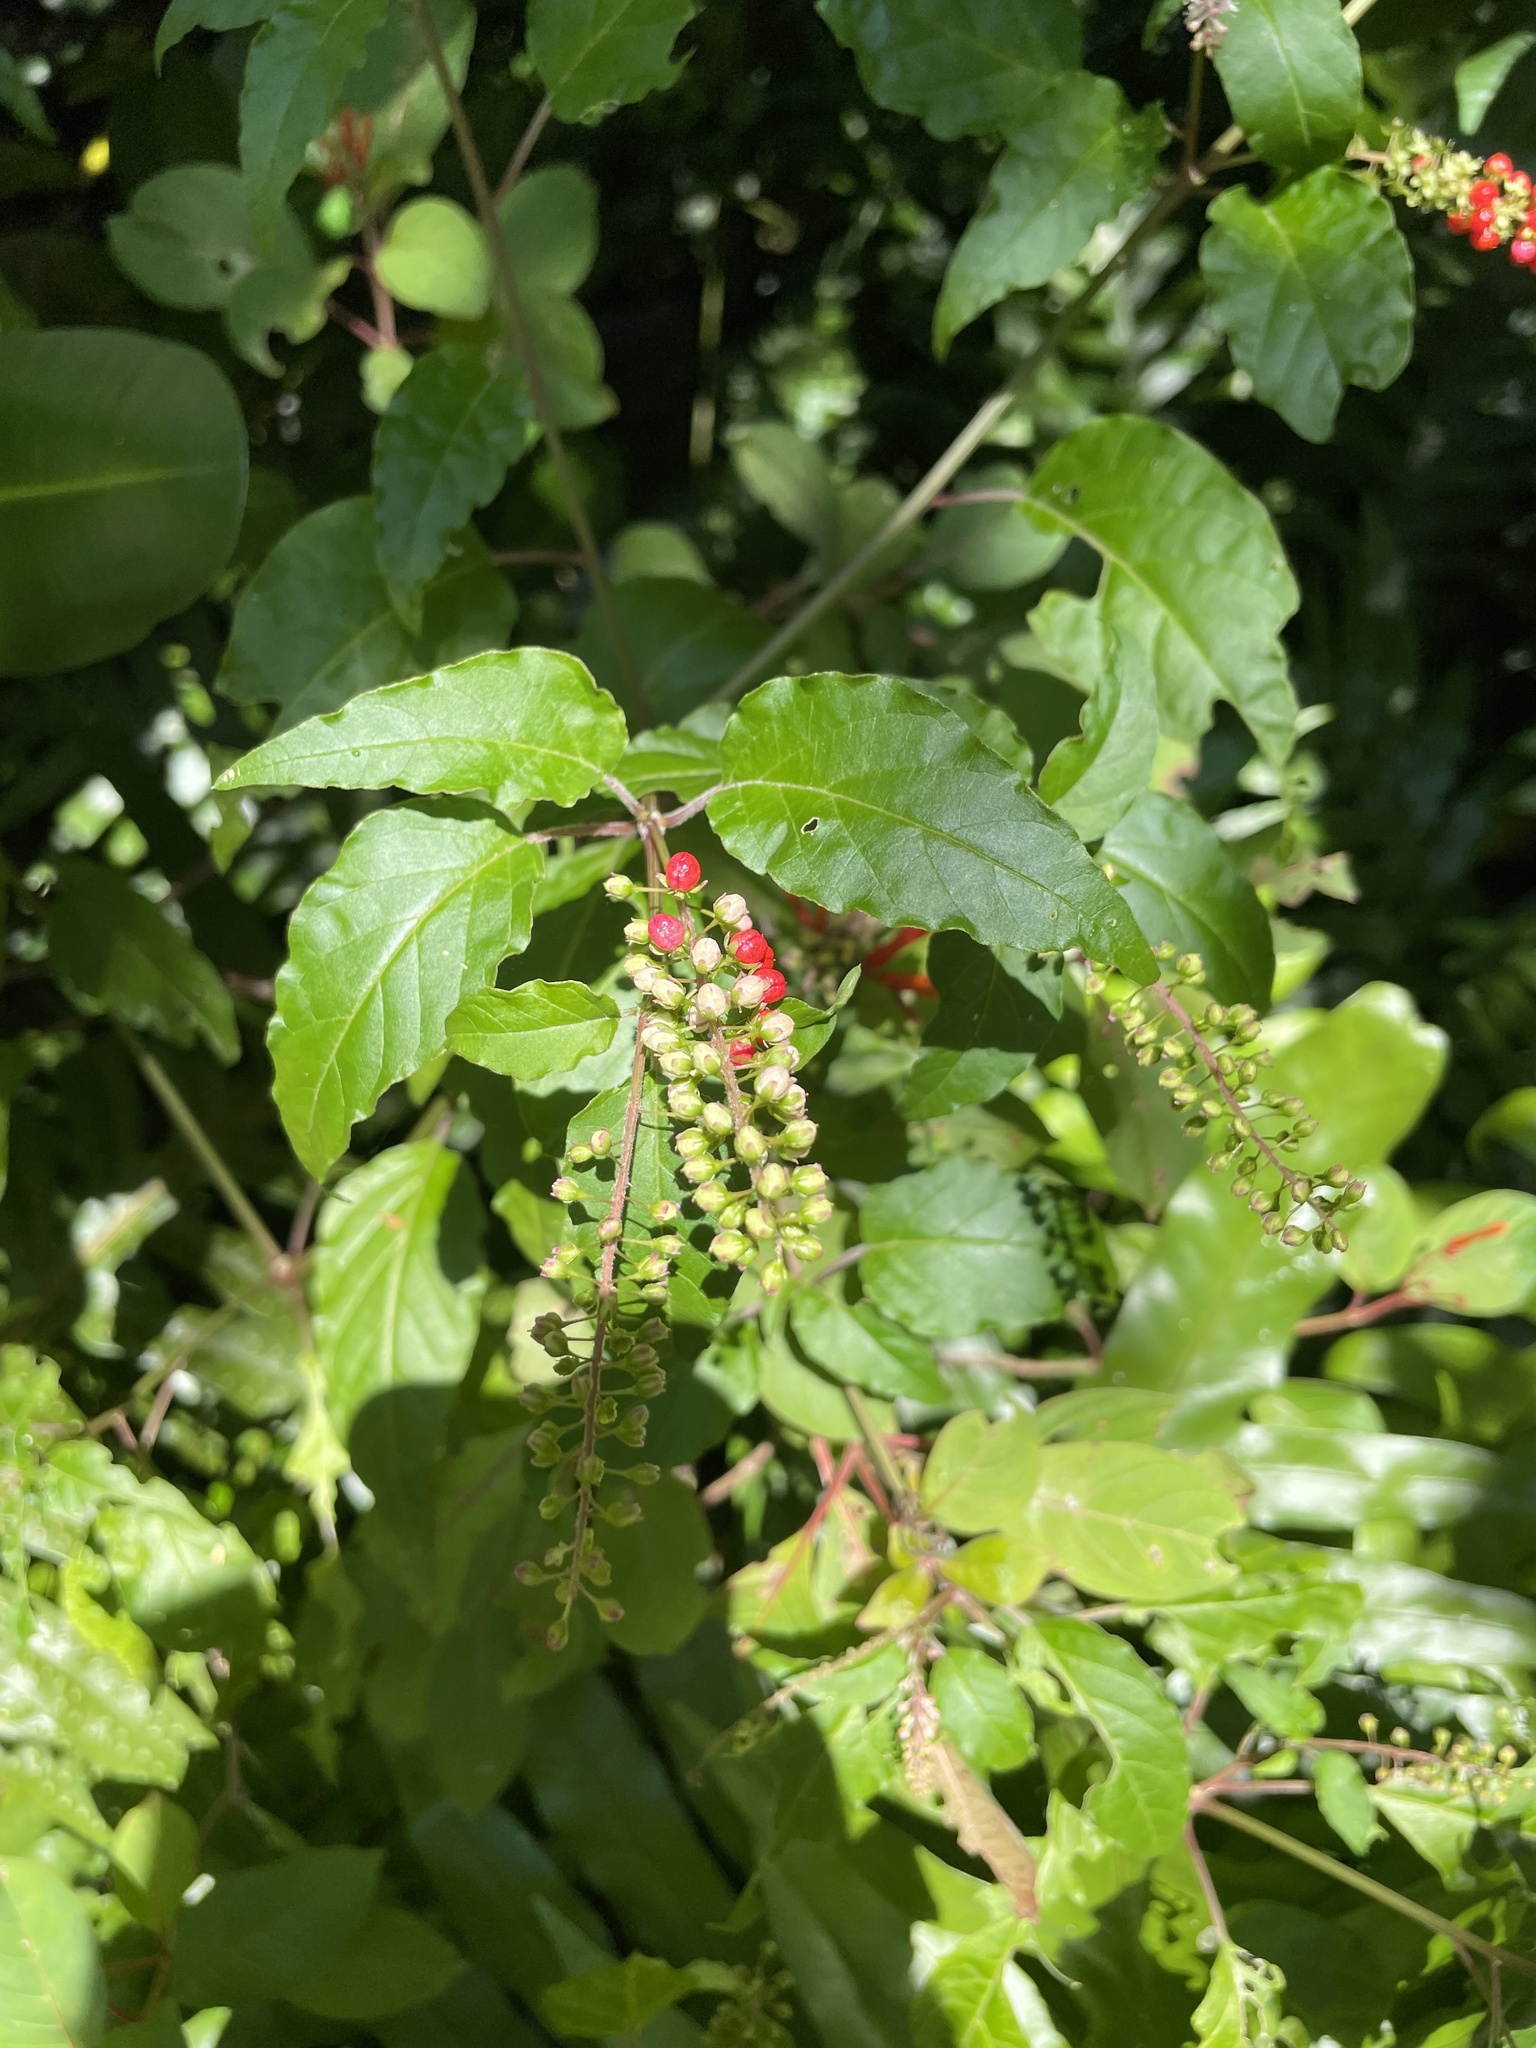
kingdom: Plantae
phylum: Tracheophyta
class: Magnoliopsida
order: Caryophyllales
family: Phytolaccaceae
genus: Rivina
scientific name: Rivina humilis
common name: Rougeplant
